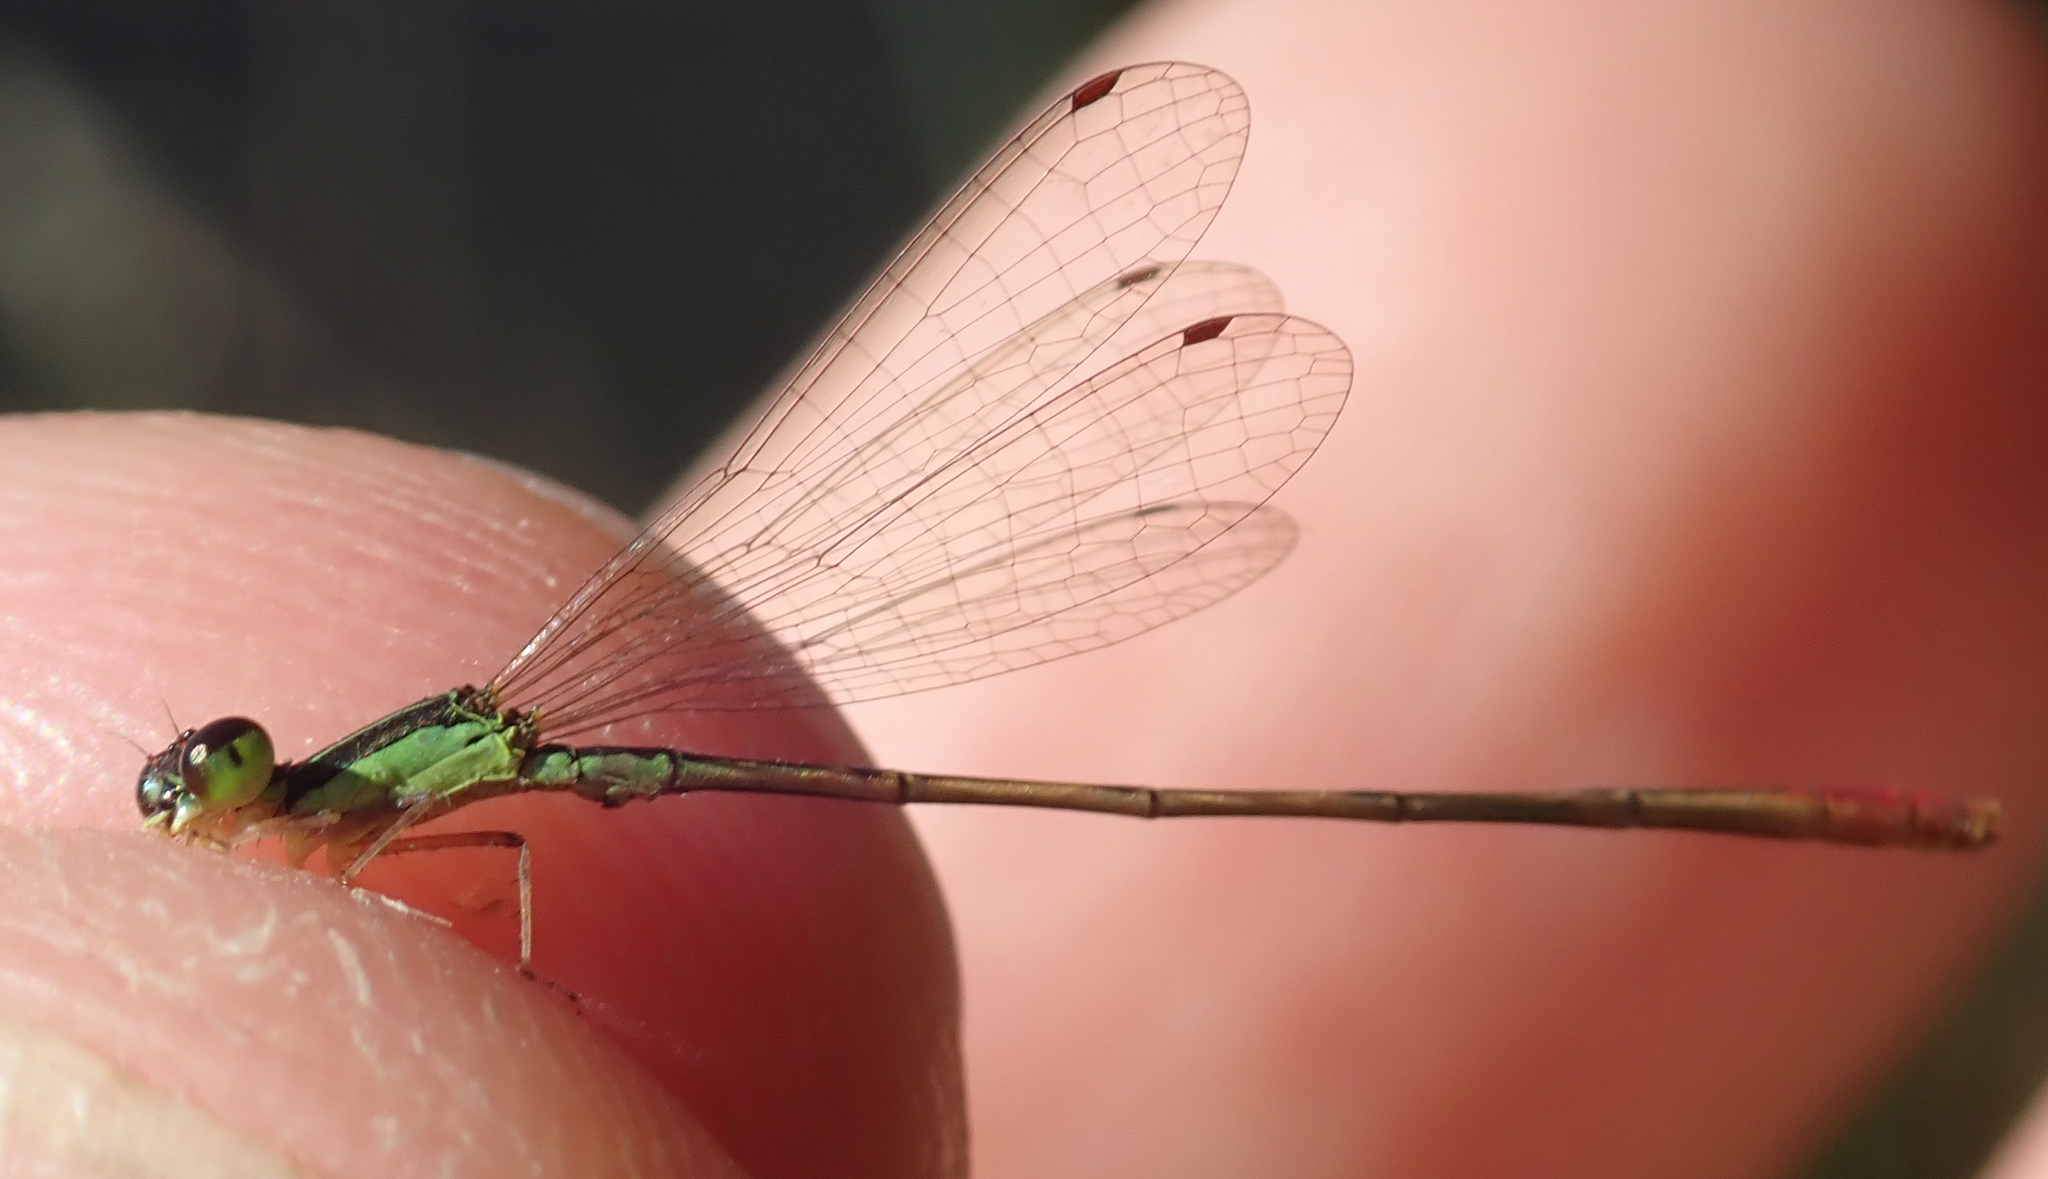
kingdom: Animalia
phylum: Arthropoda
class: Insecta
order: Odonata
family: Coenagrionidae
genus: Agriocnemis
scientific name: Agriocnemis exilis
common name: Little wisp
